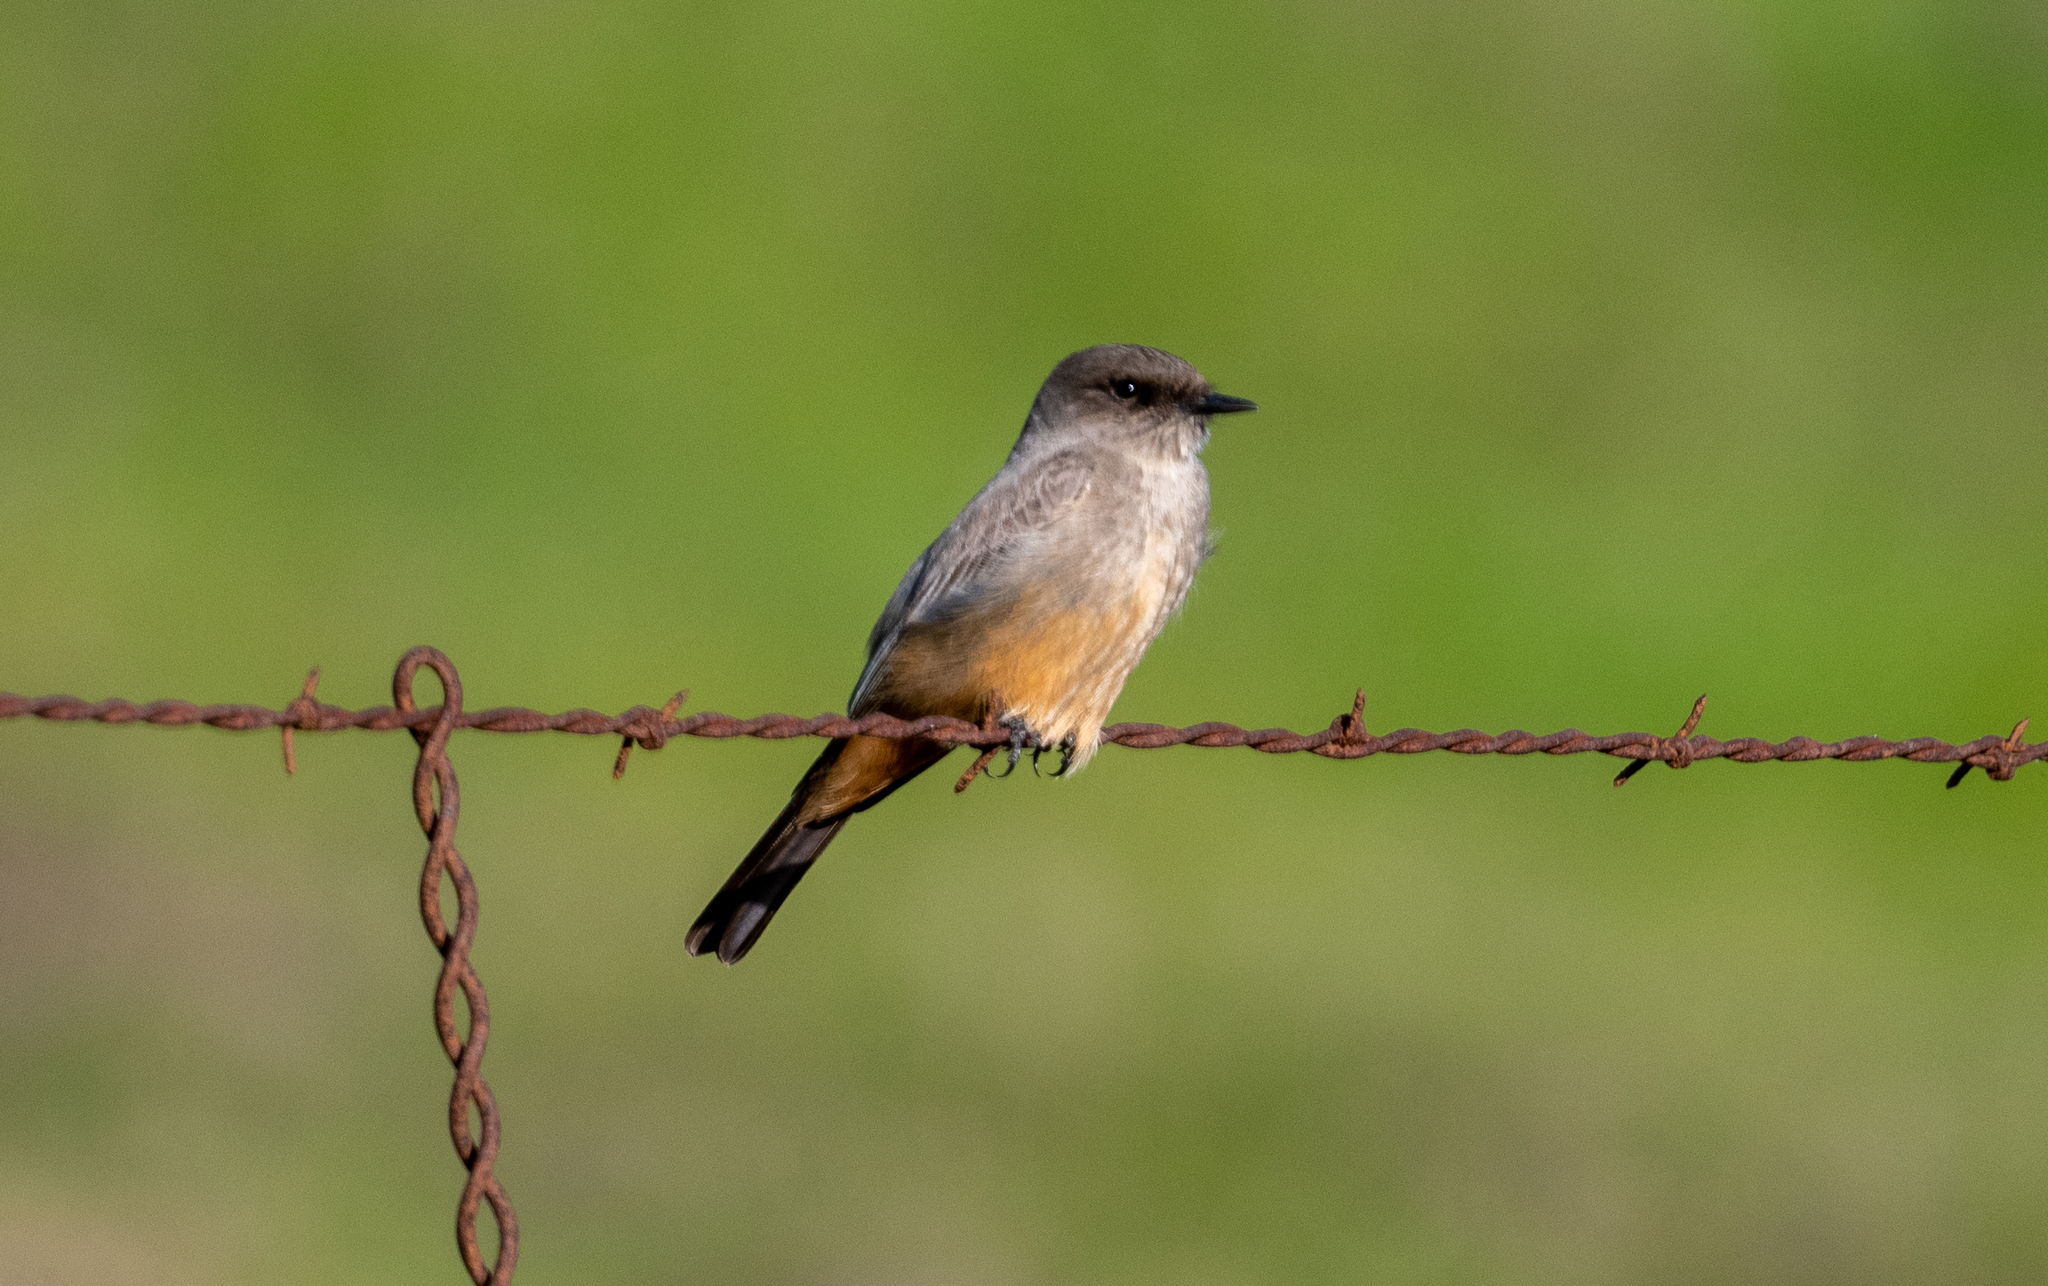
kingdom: Animalia
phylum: Chordata
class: Aves
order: Passeriformes
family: Tyrannidae
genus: Sayornis
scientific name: Sayornis saya
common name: Say's phoebe
